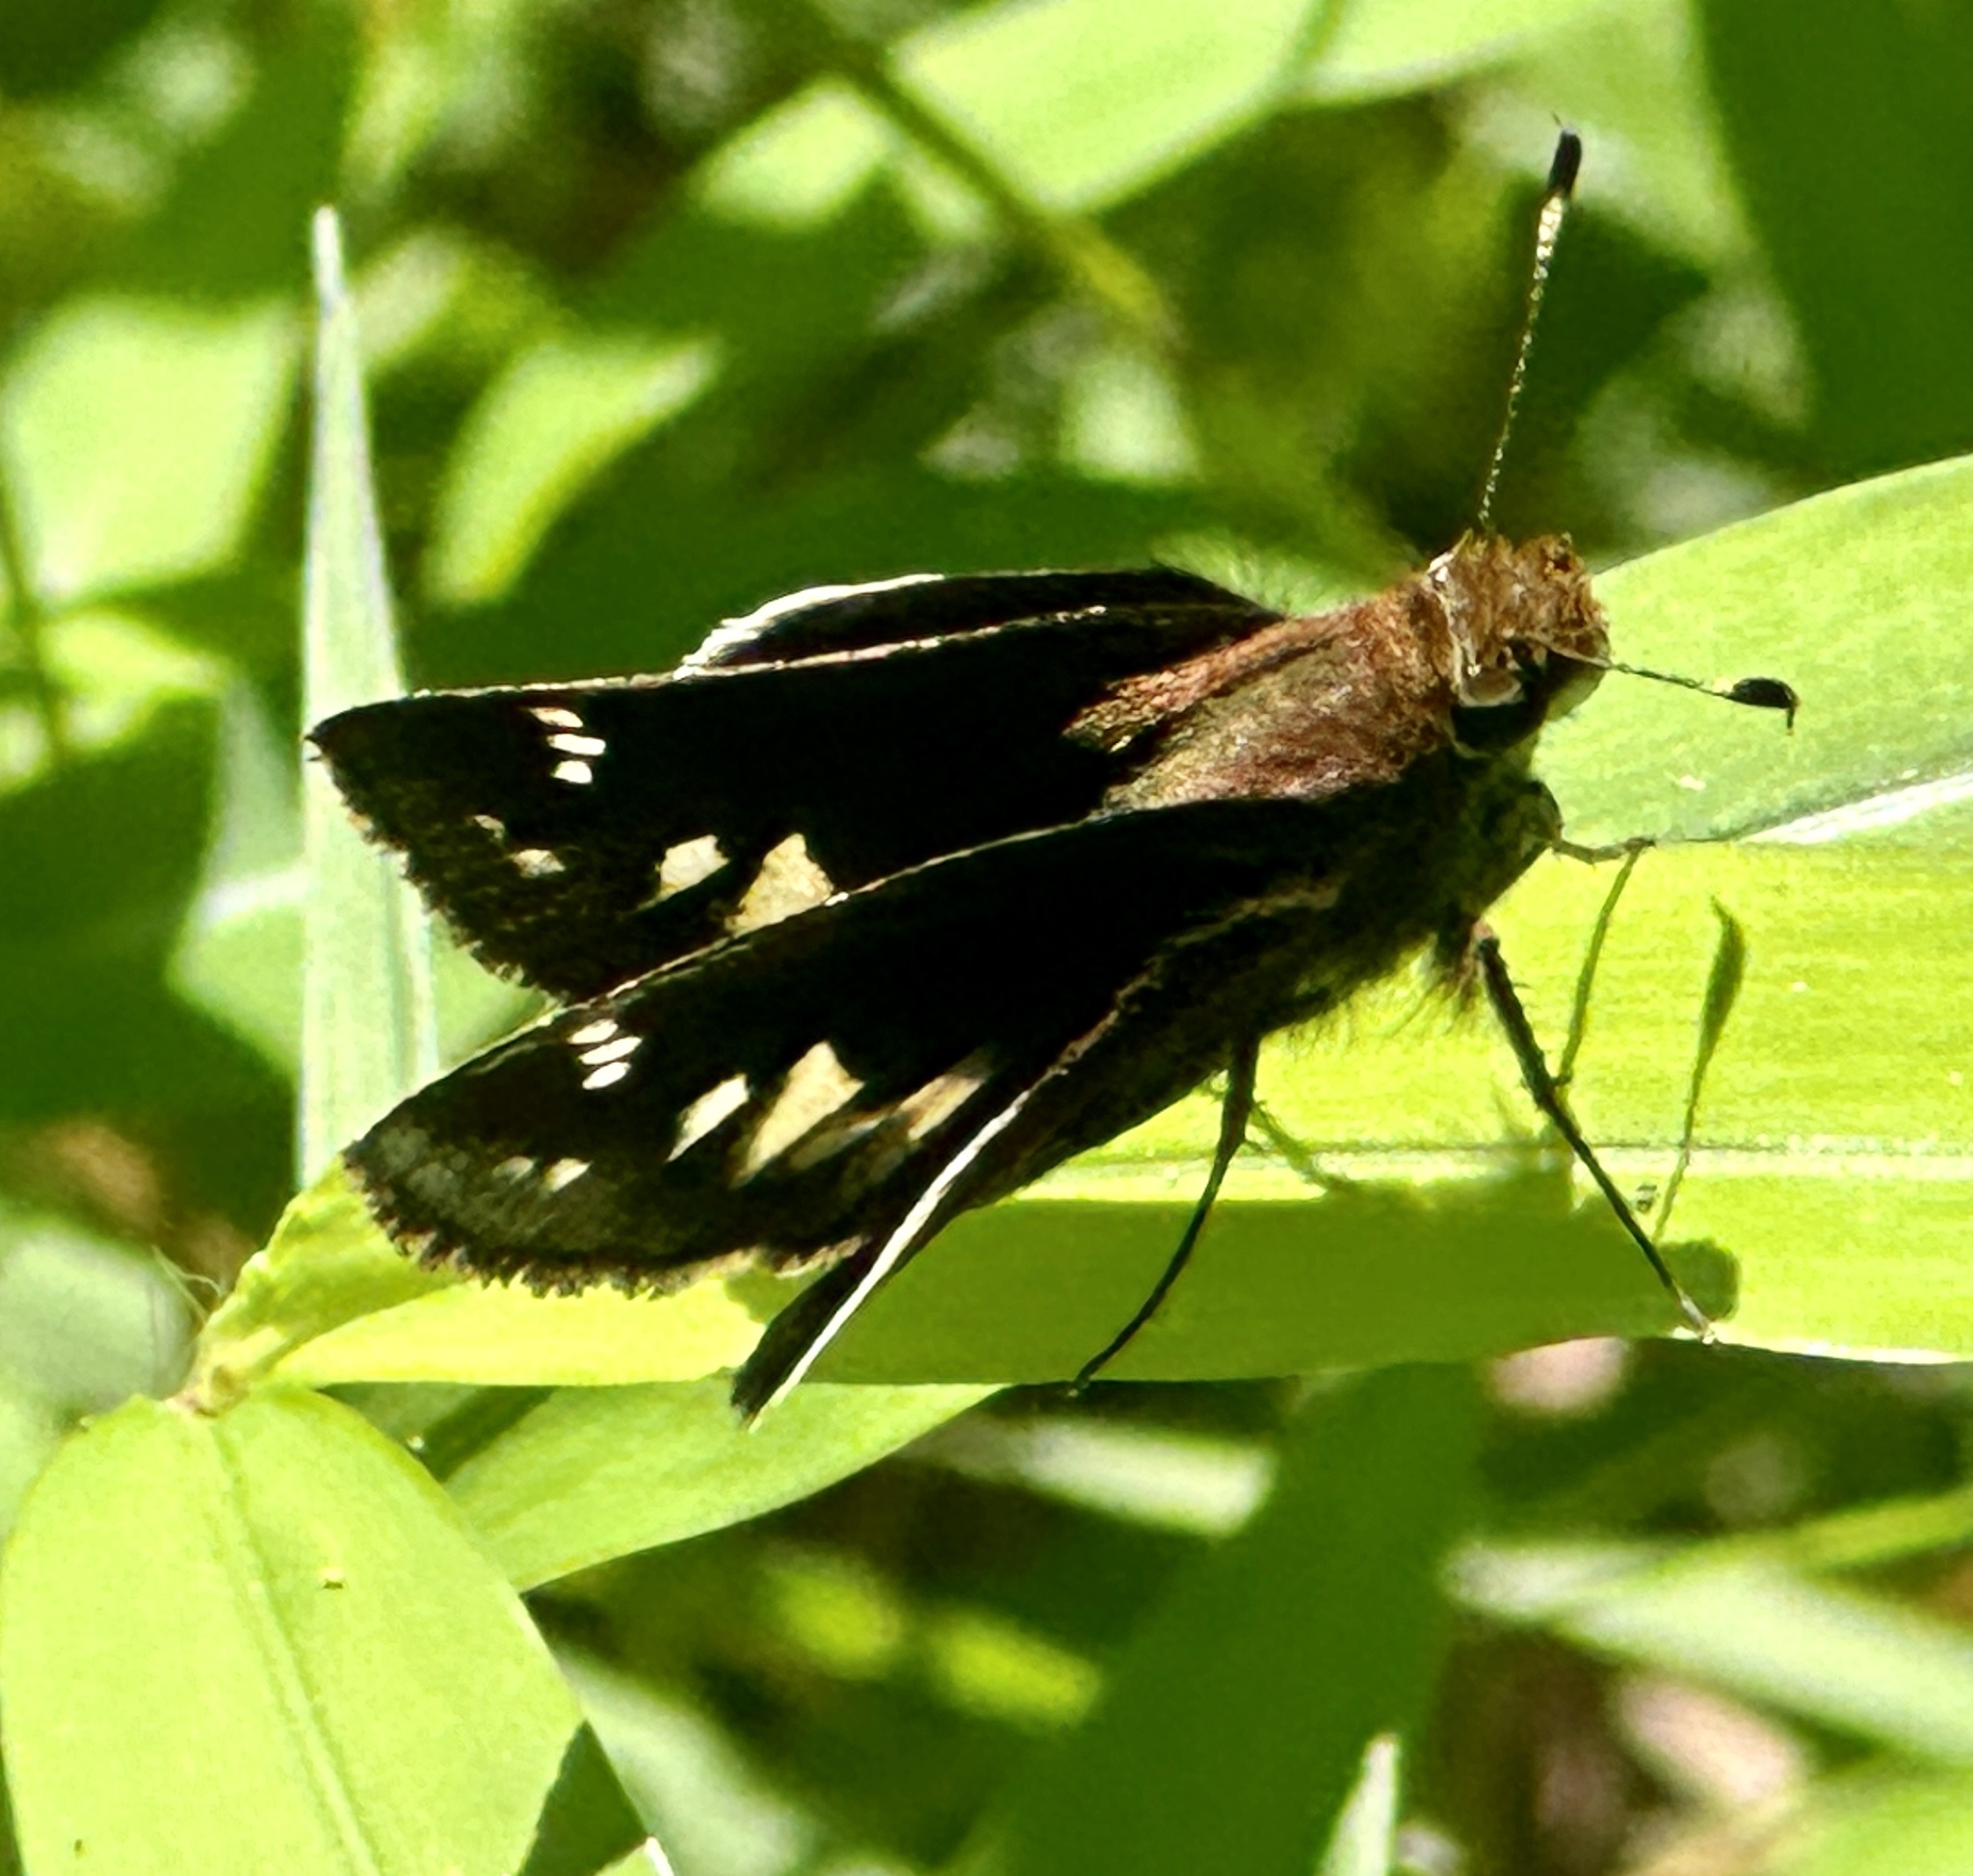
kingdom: Animalia
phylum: Arthropoda
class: Insecta
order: Lepidoptera
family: Hesperiidae
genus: Lon
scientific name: Lon zabulon
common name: Zabulon skipper
